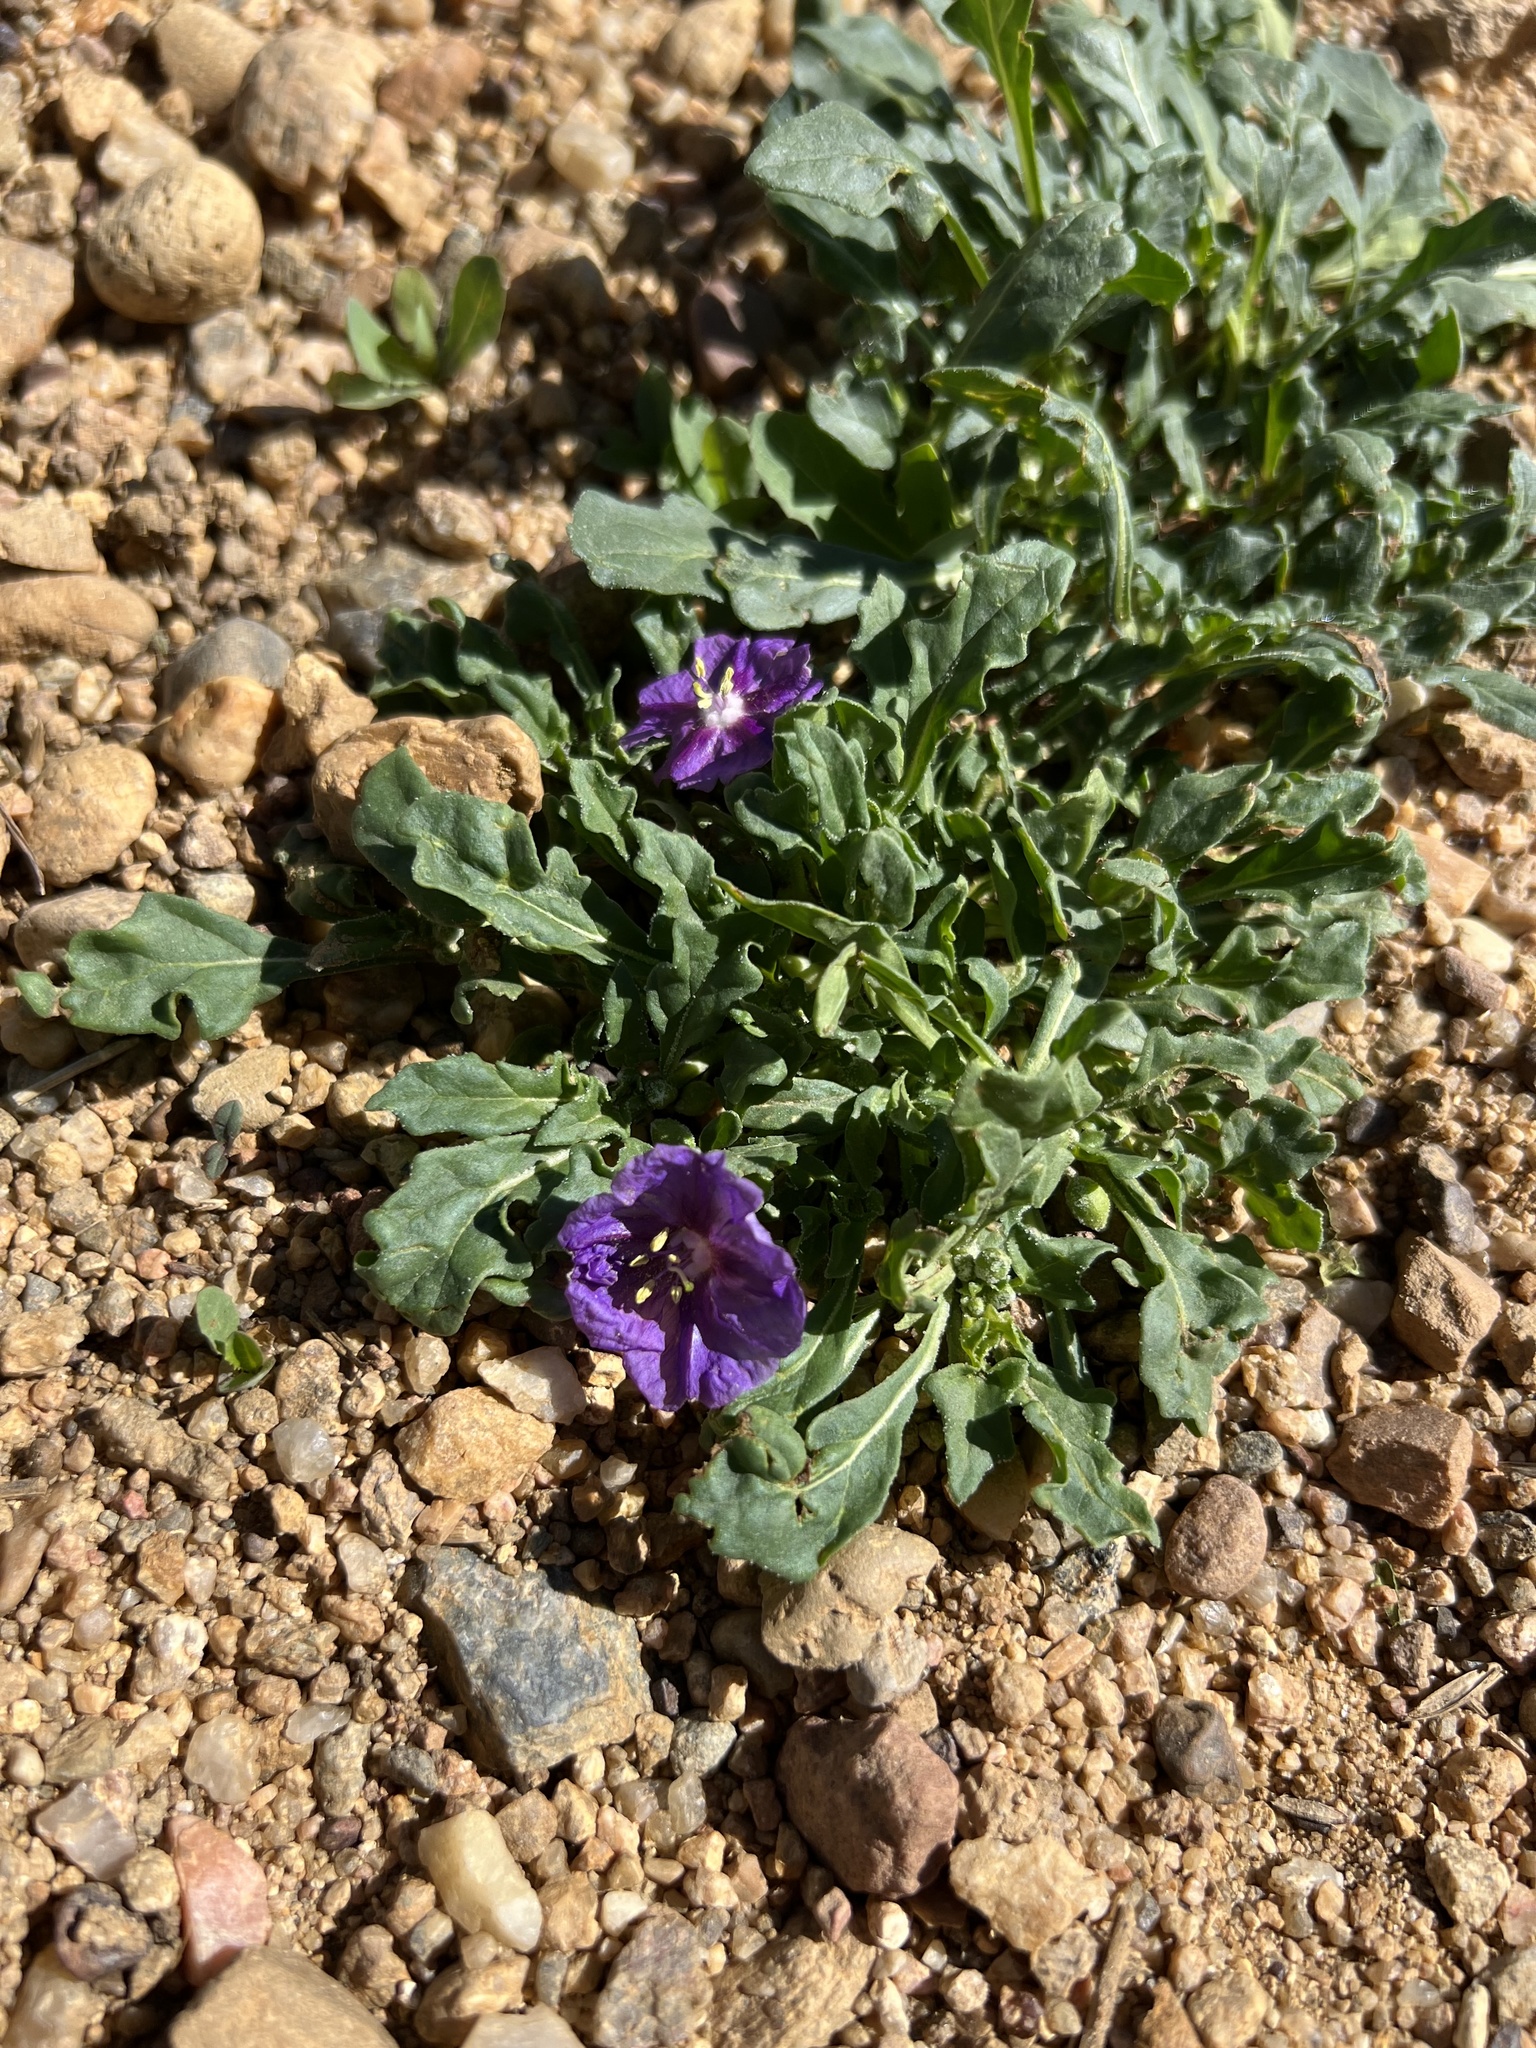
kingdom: Plantae
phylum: Tracheophyta
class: Magnoliopsida
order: Solanales
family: Solanaceae
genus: Quincula
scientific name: Quincula lobata
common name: Purple-ground-cherry
